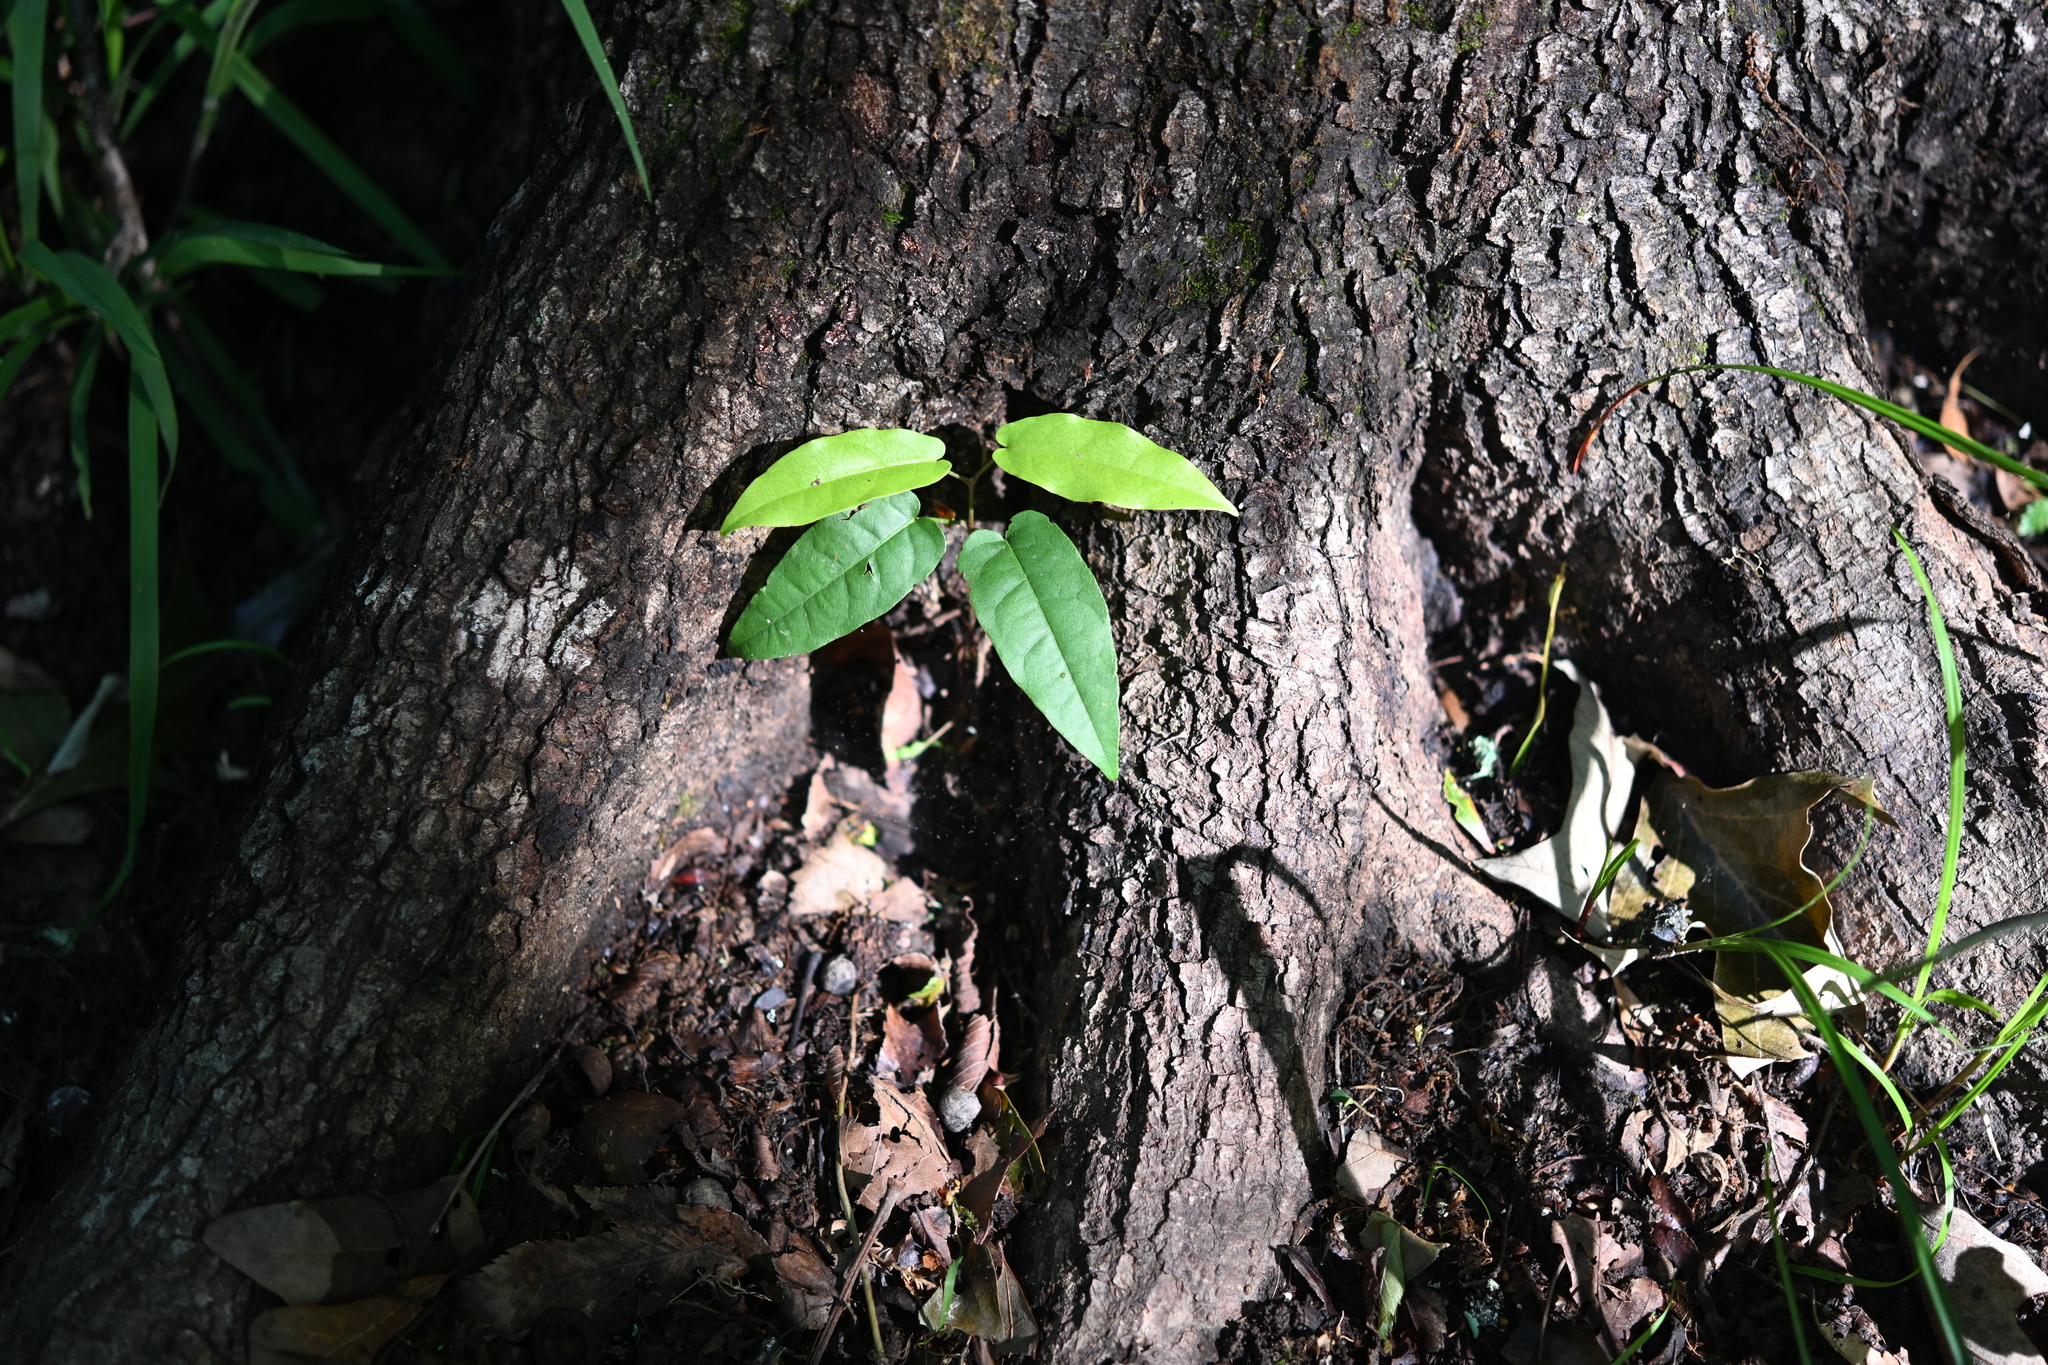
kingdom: Plantae
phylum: Tracheophyta
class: Magnoliopsida
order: Lamiales
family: Bignoniaceae
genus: Bignonia
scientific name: Bignonia capreolata
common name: Crossvine
